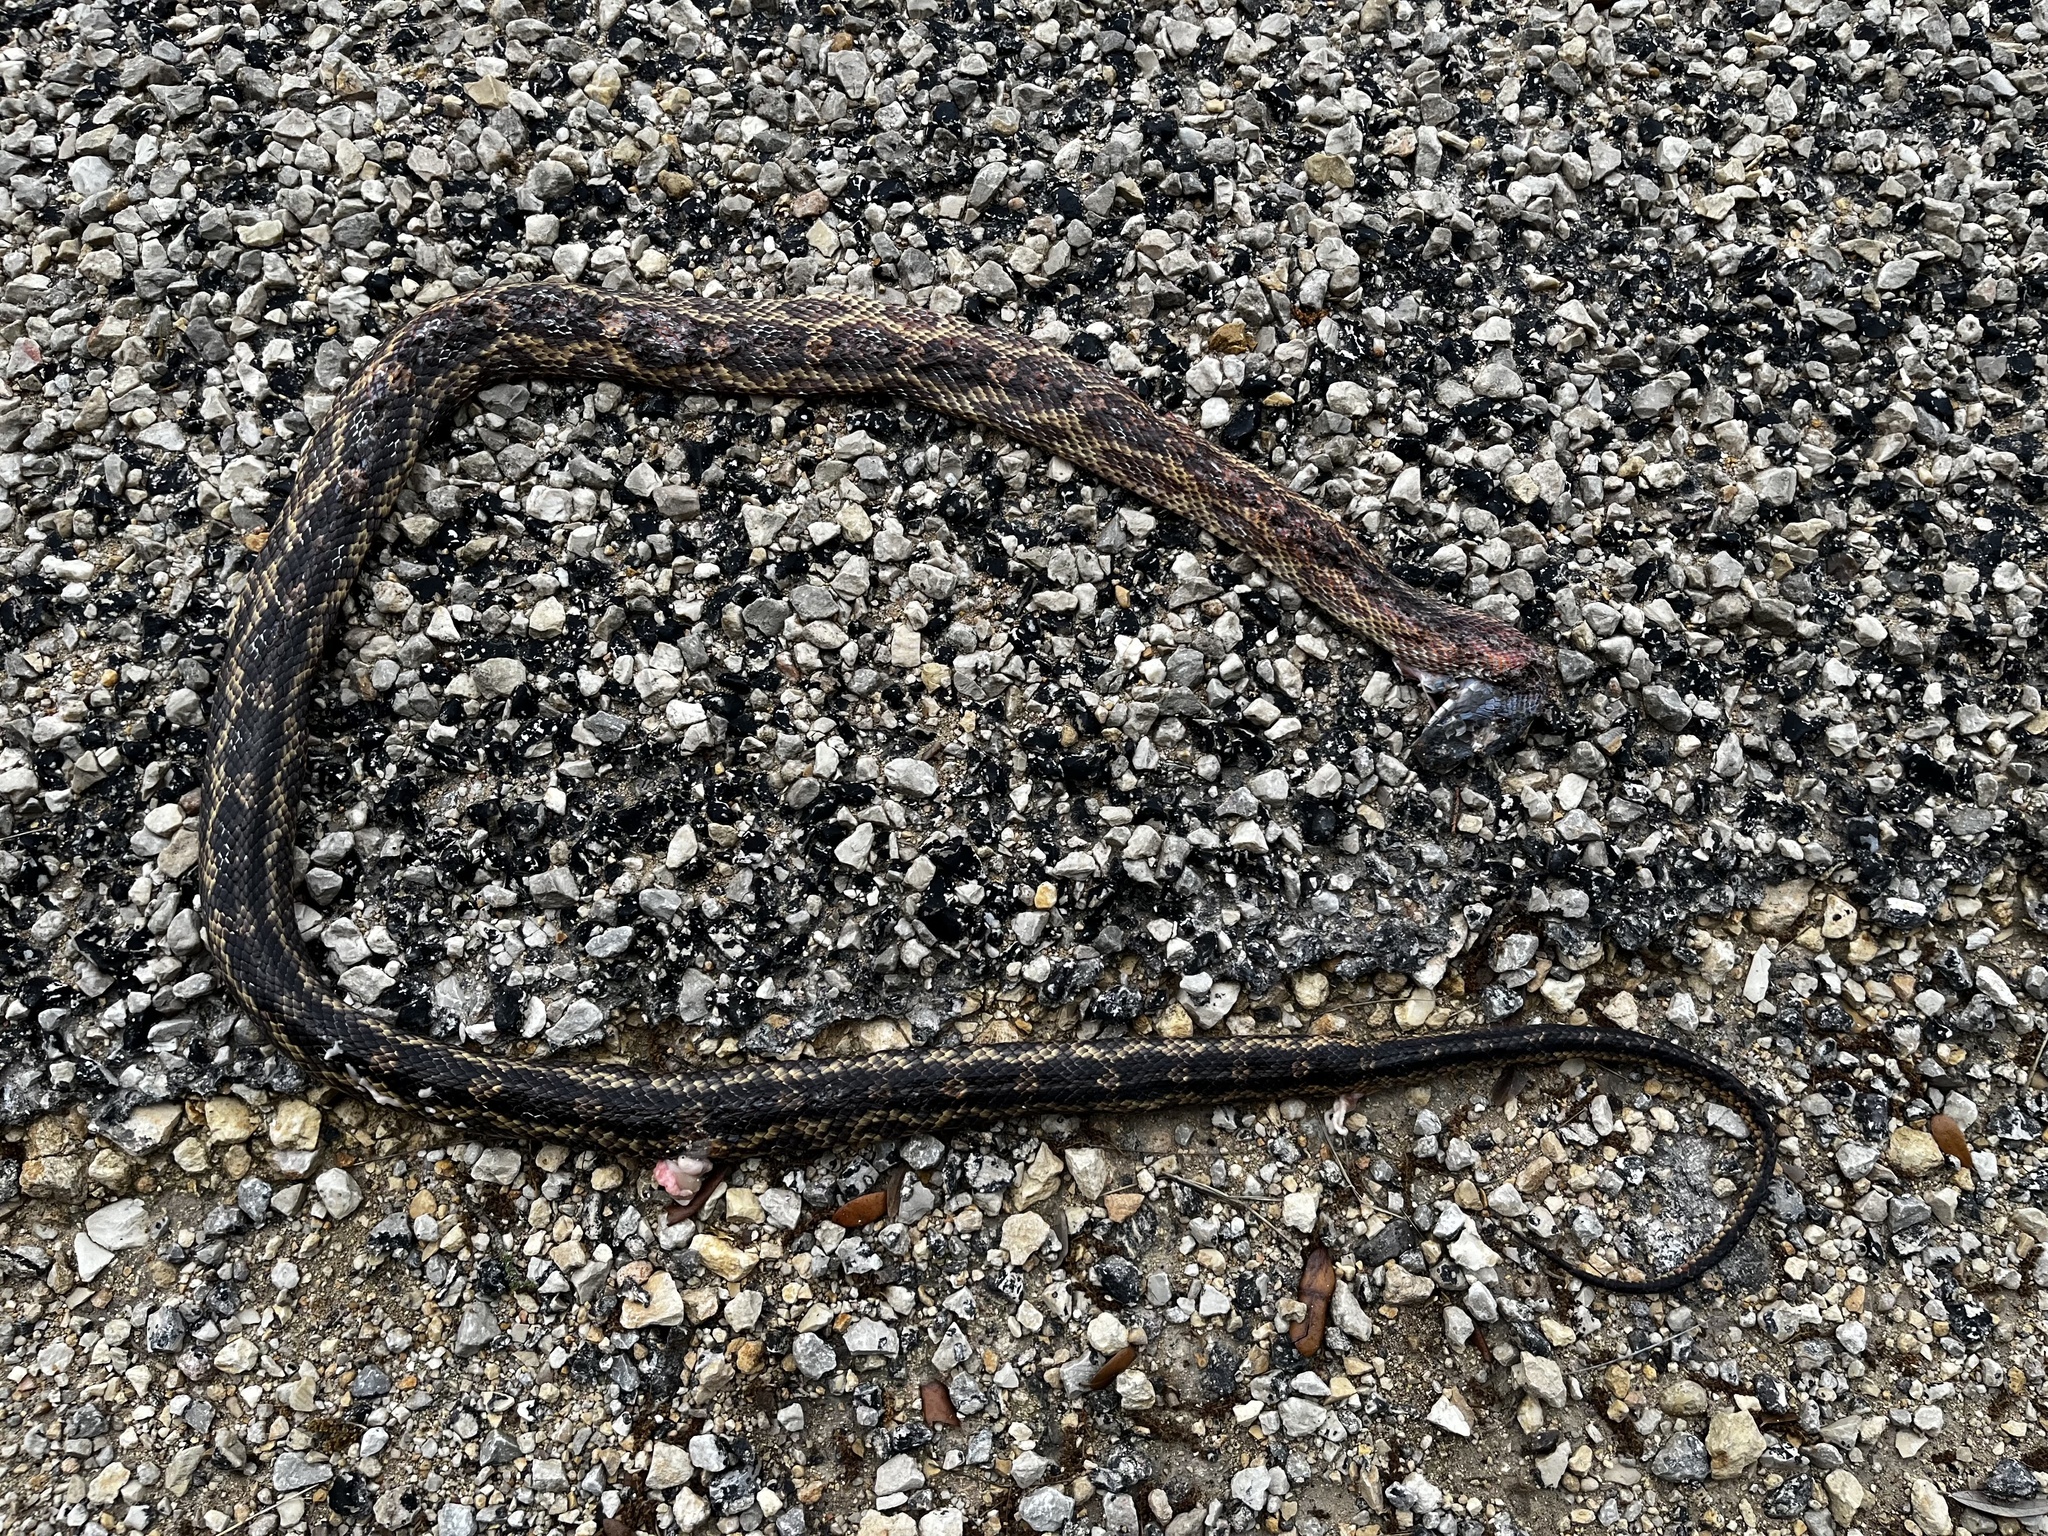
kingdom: Animalia
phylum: Chordata
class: Squamata
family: Colubridae
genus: Pantherophis
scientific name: Pantherophis obsoletus
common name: Black rat snake
